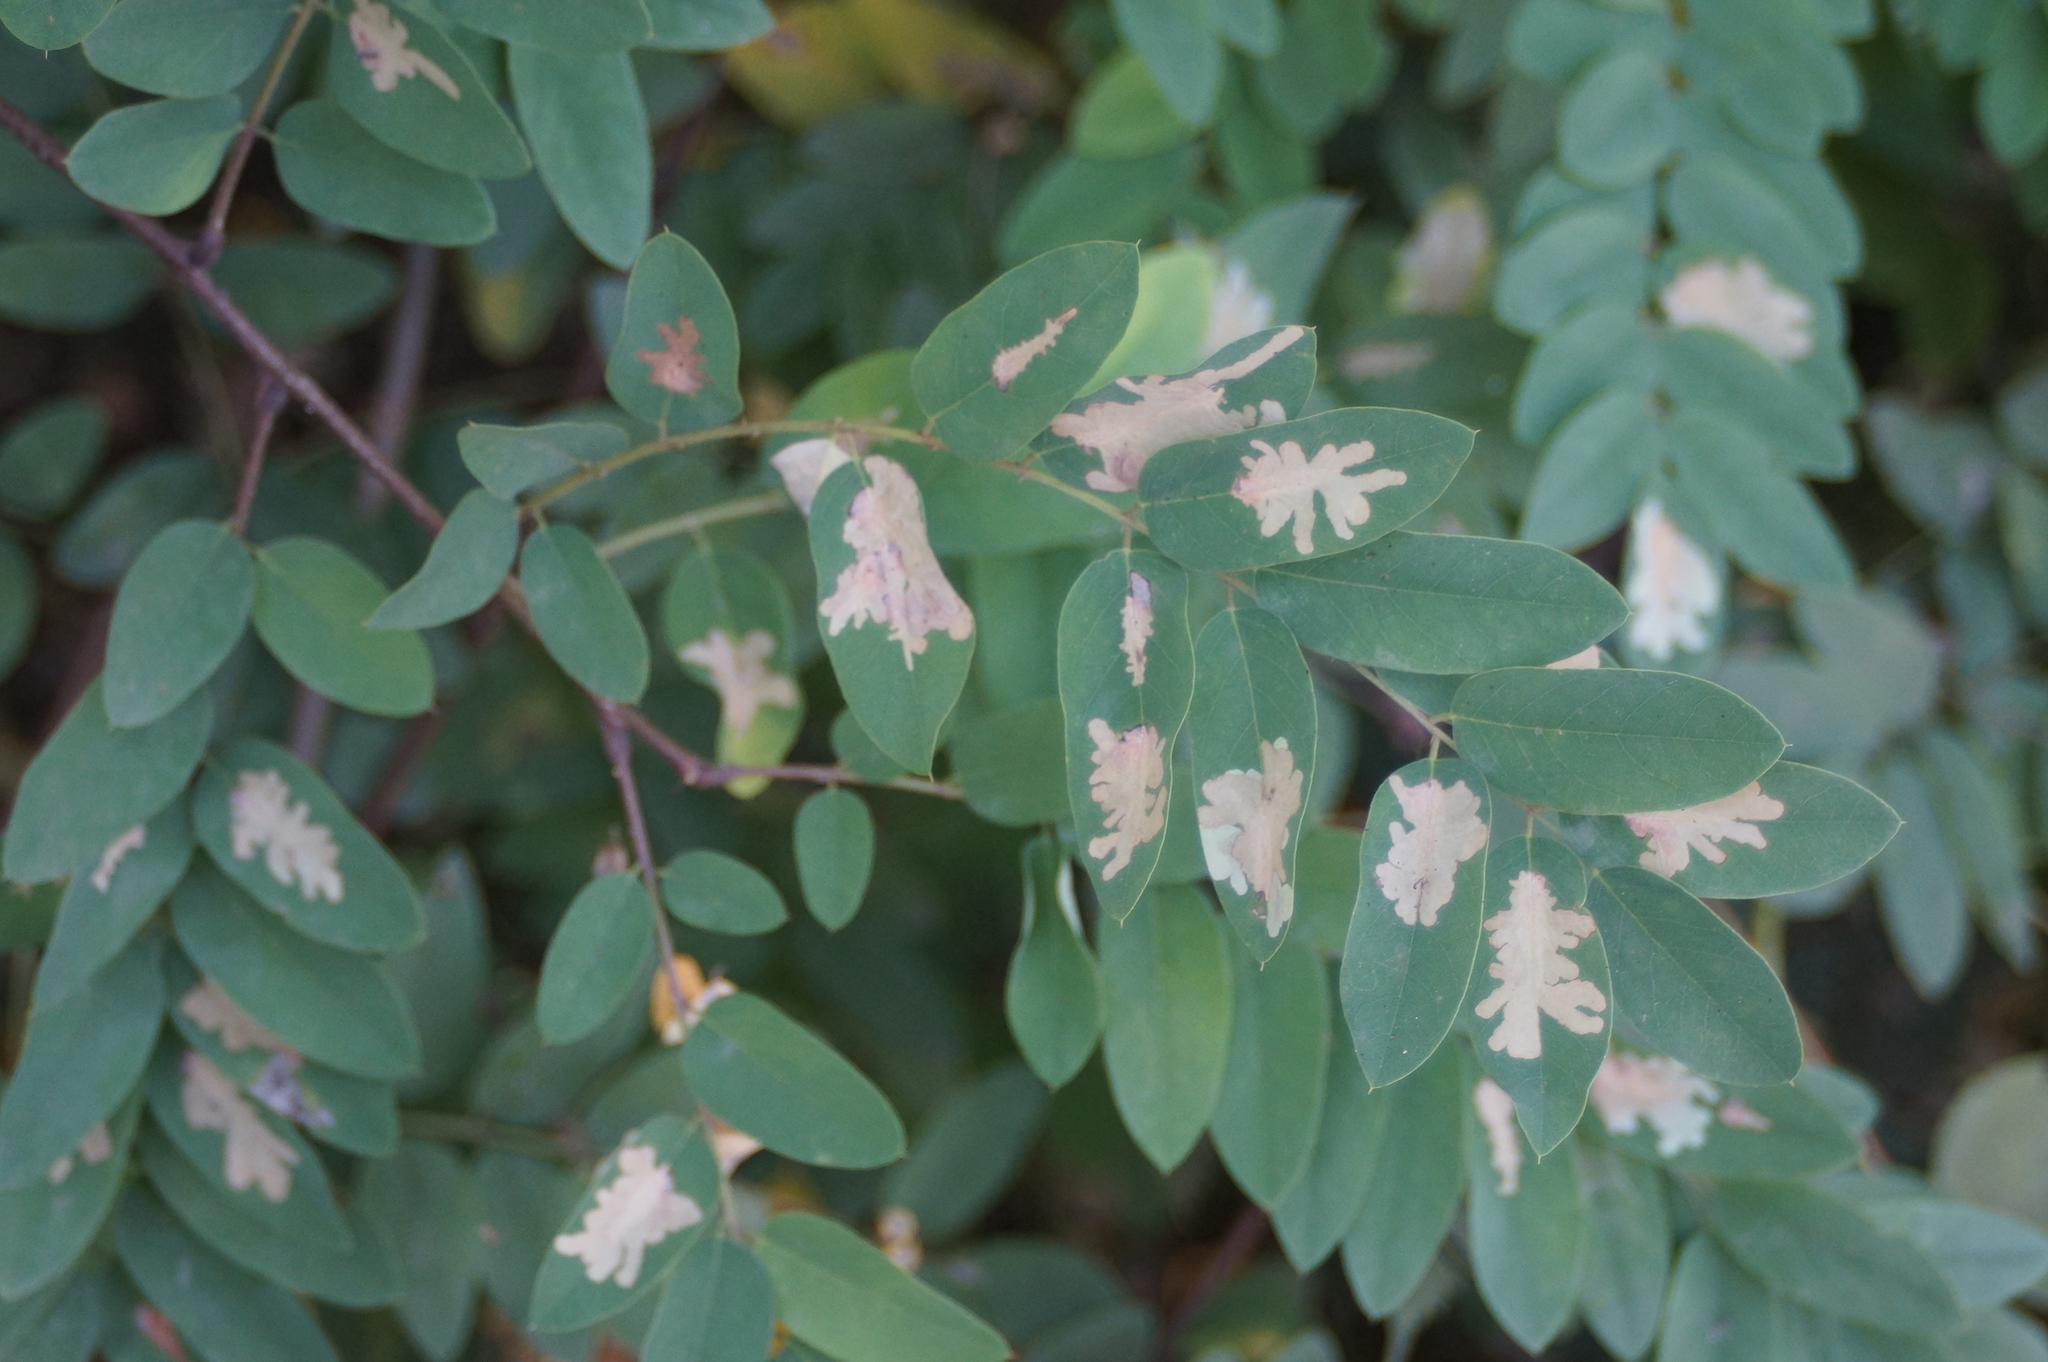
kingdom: Animalia
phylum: Arthropoda
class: Insecta
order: Lepidoptera
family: Gracillariidae
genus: Parectopa
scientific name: Parectopa robiniella
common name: Locust digitate leafminer
